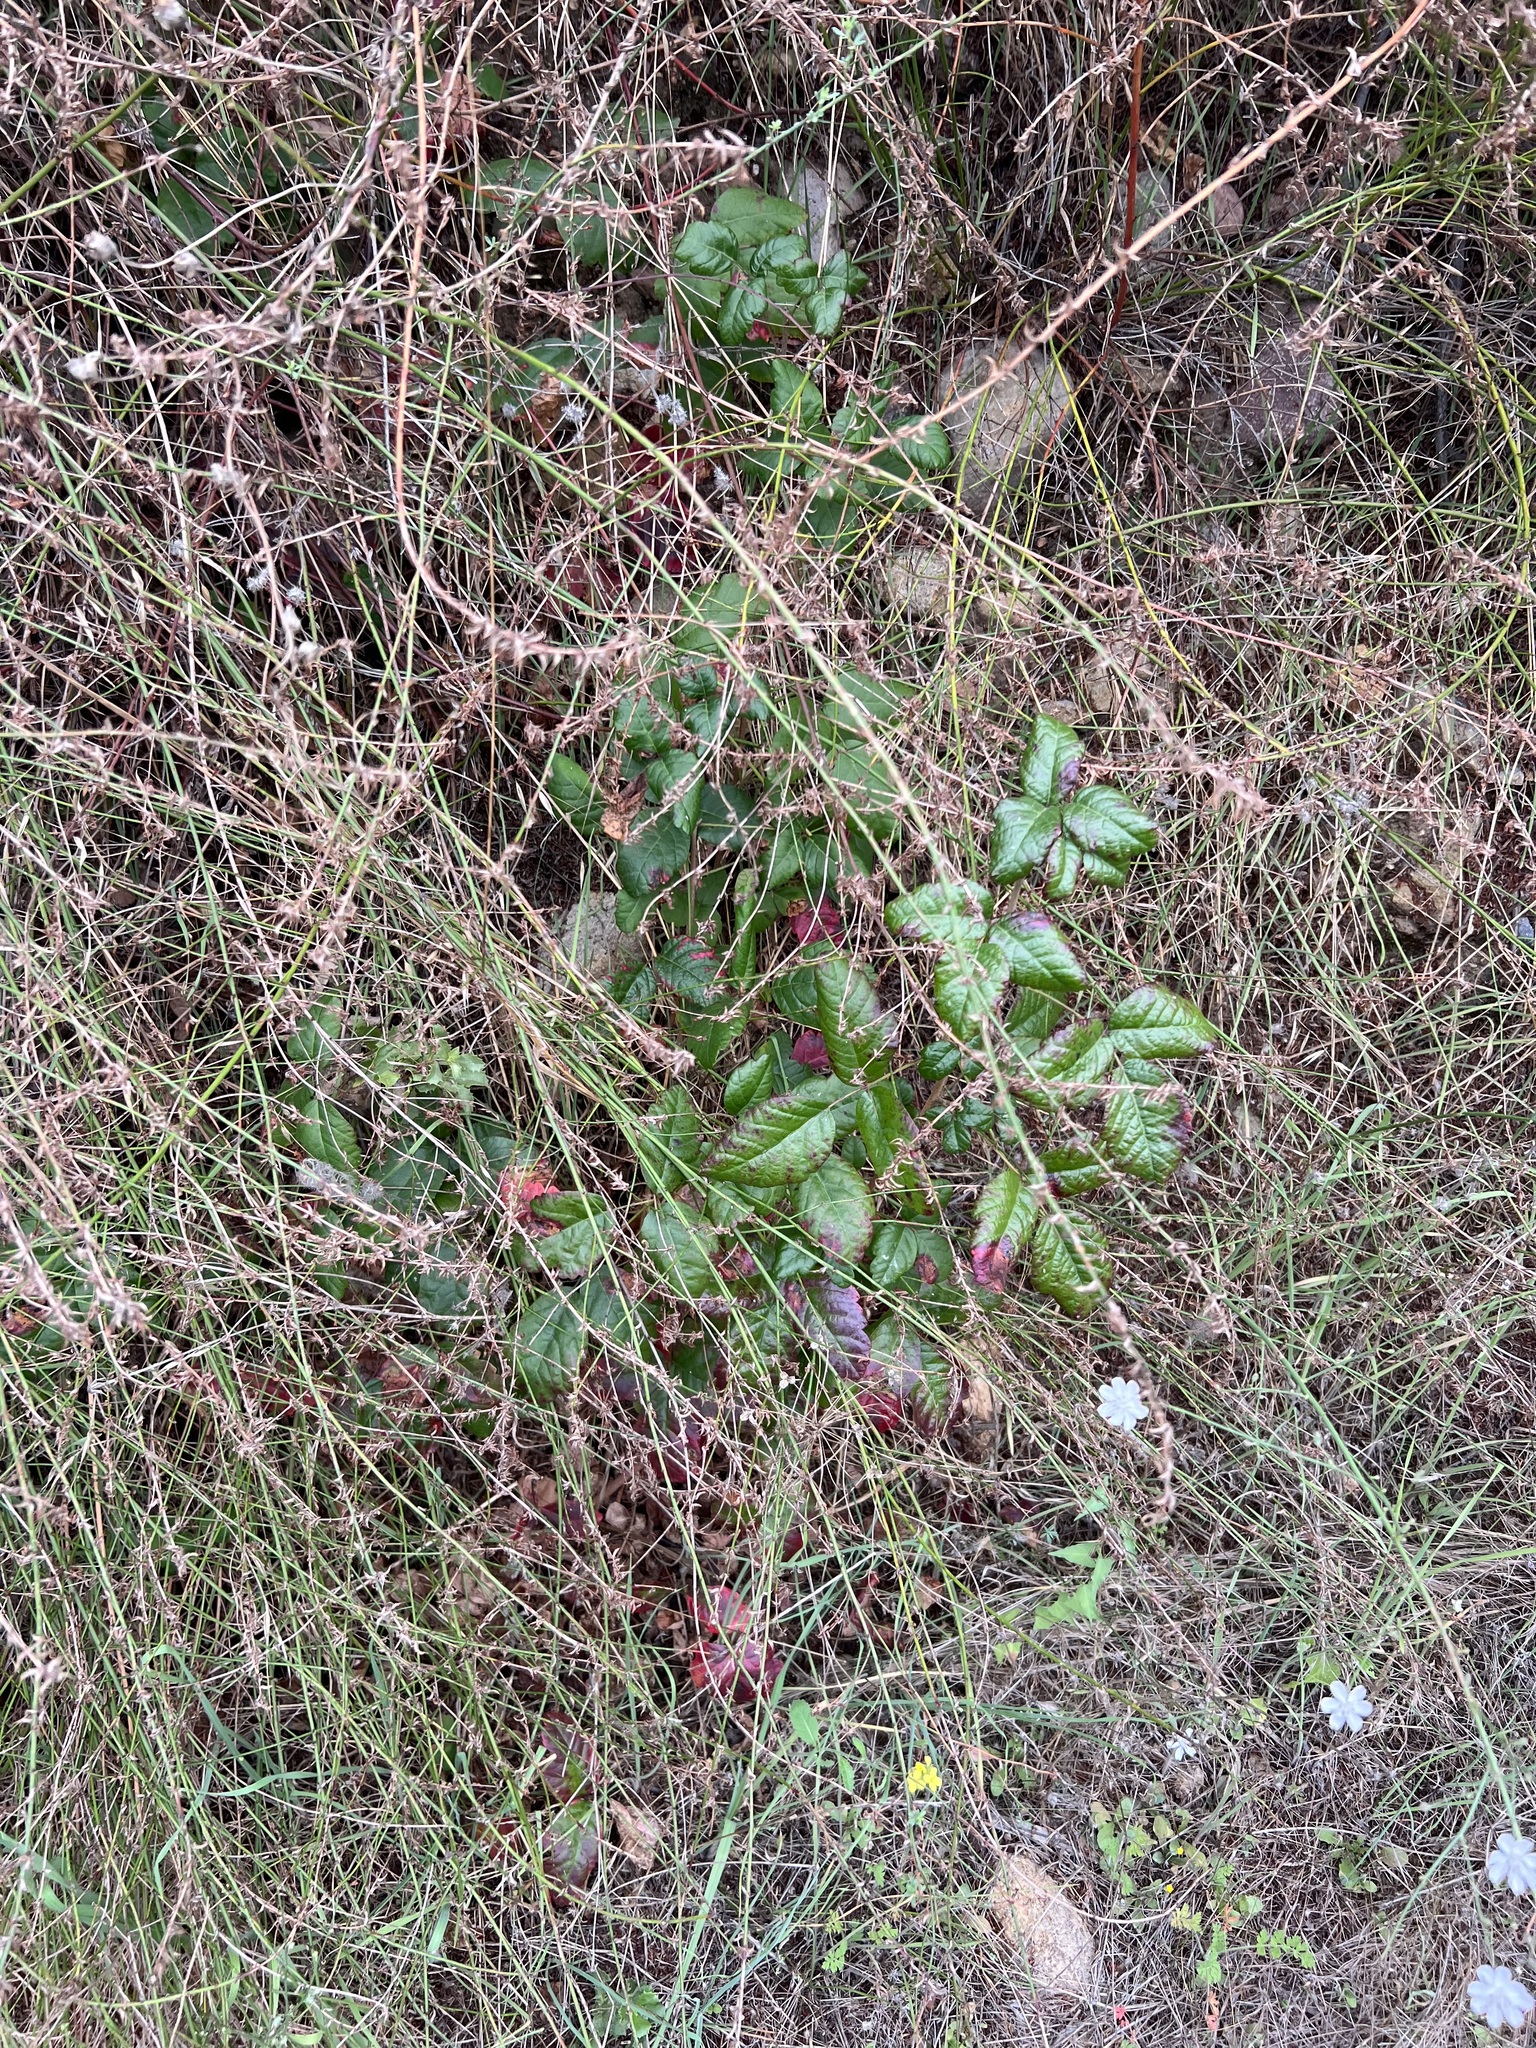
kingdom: Plantae
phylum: Tracheophyta
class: Magnoliopsida
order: Sapindales
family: Anacardiaceae
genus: Toxicodendron
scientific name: Toxicodendron diversilobum
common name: Pacific poison-oak
